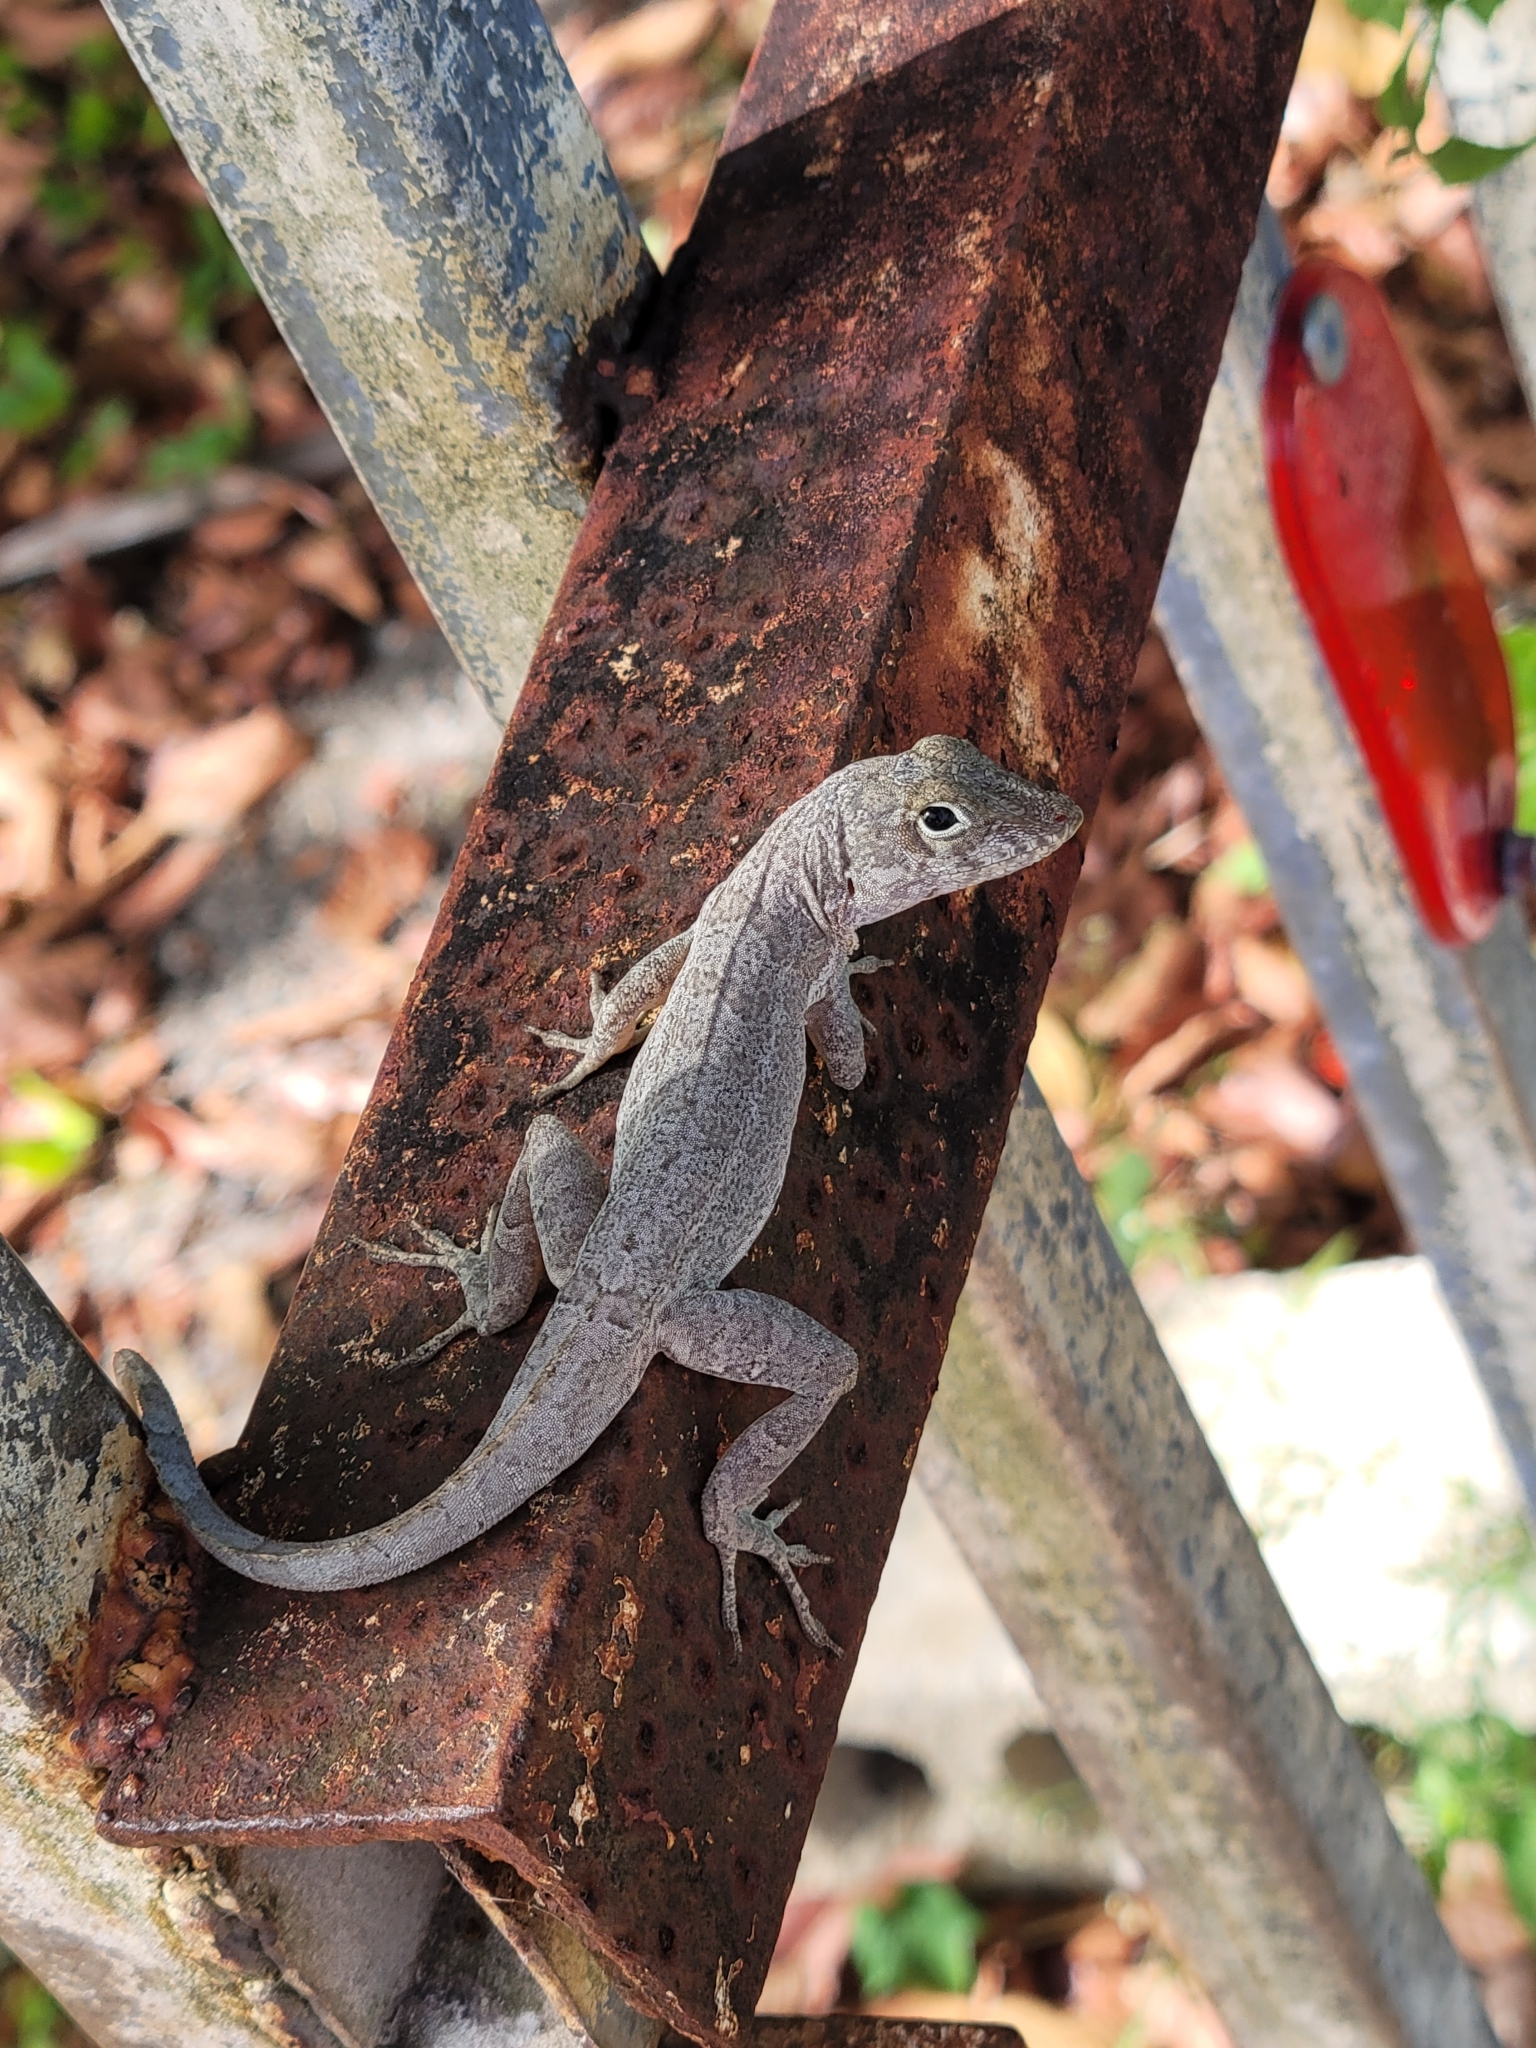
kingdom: Animalia
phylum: Chordata
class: Squamata
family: Dactyloidae
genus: Anolis
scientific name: Anolis cristatellus
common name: Crested anole
